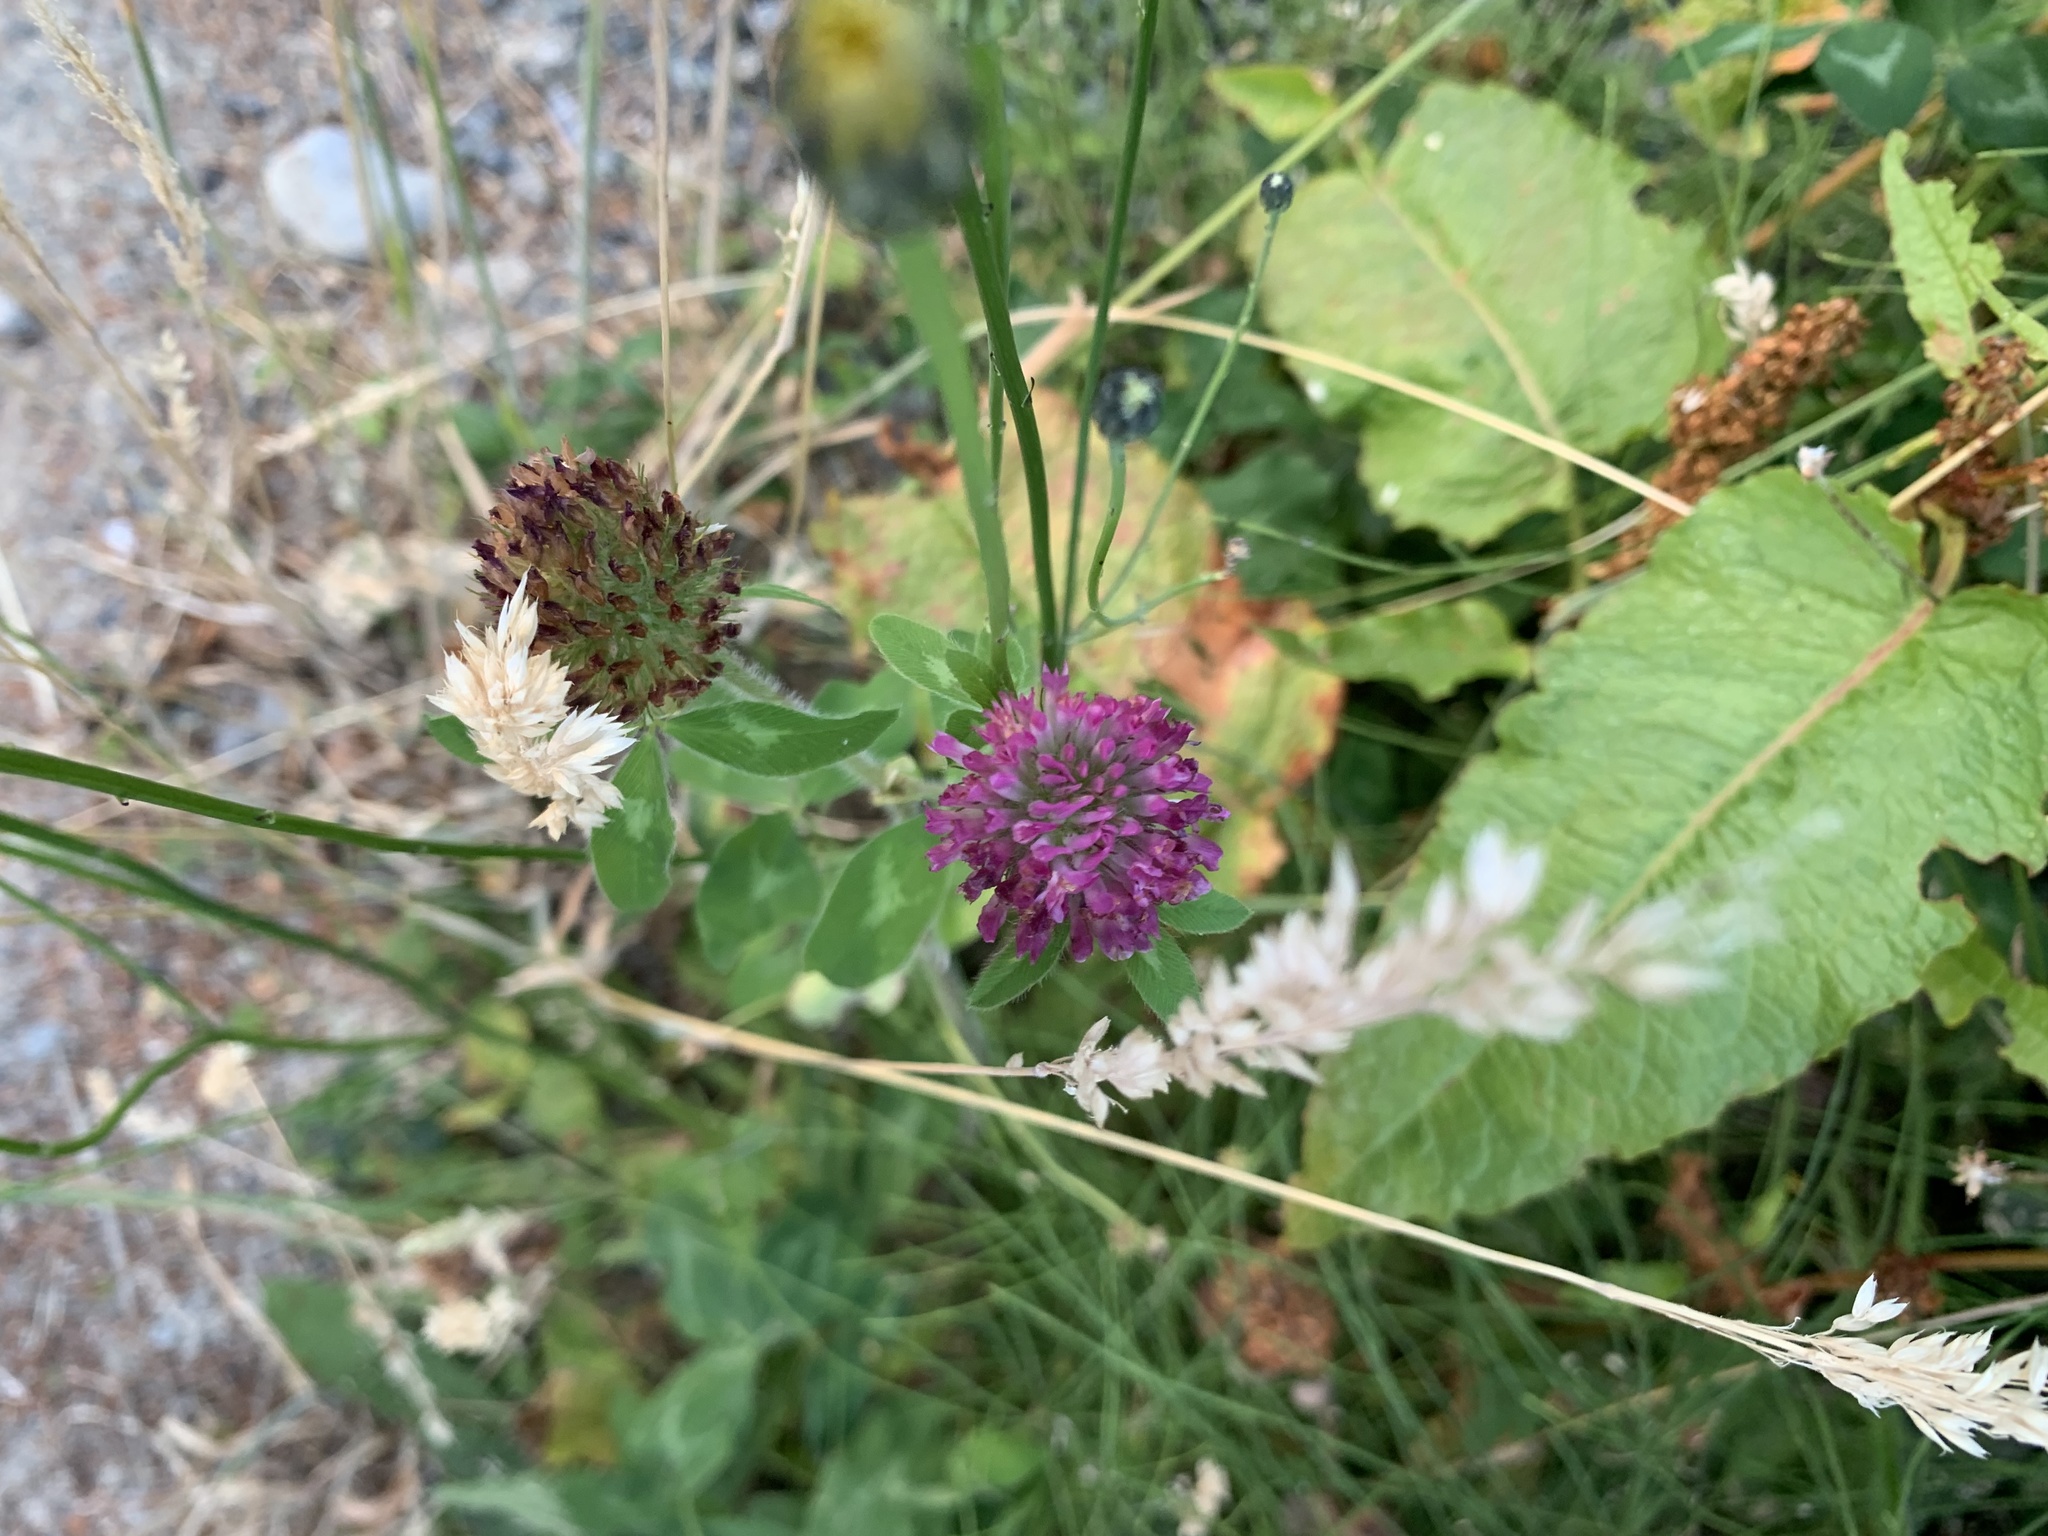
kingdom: Plantae
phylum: Tracheophyta
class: Magnoliopsida
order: Fabales
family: Fabaceae
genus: Trifolium
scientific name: Trifolium pratense
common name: Red clover
